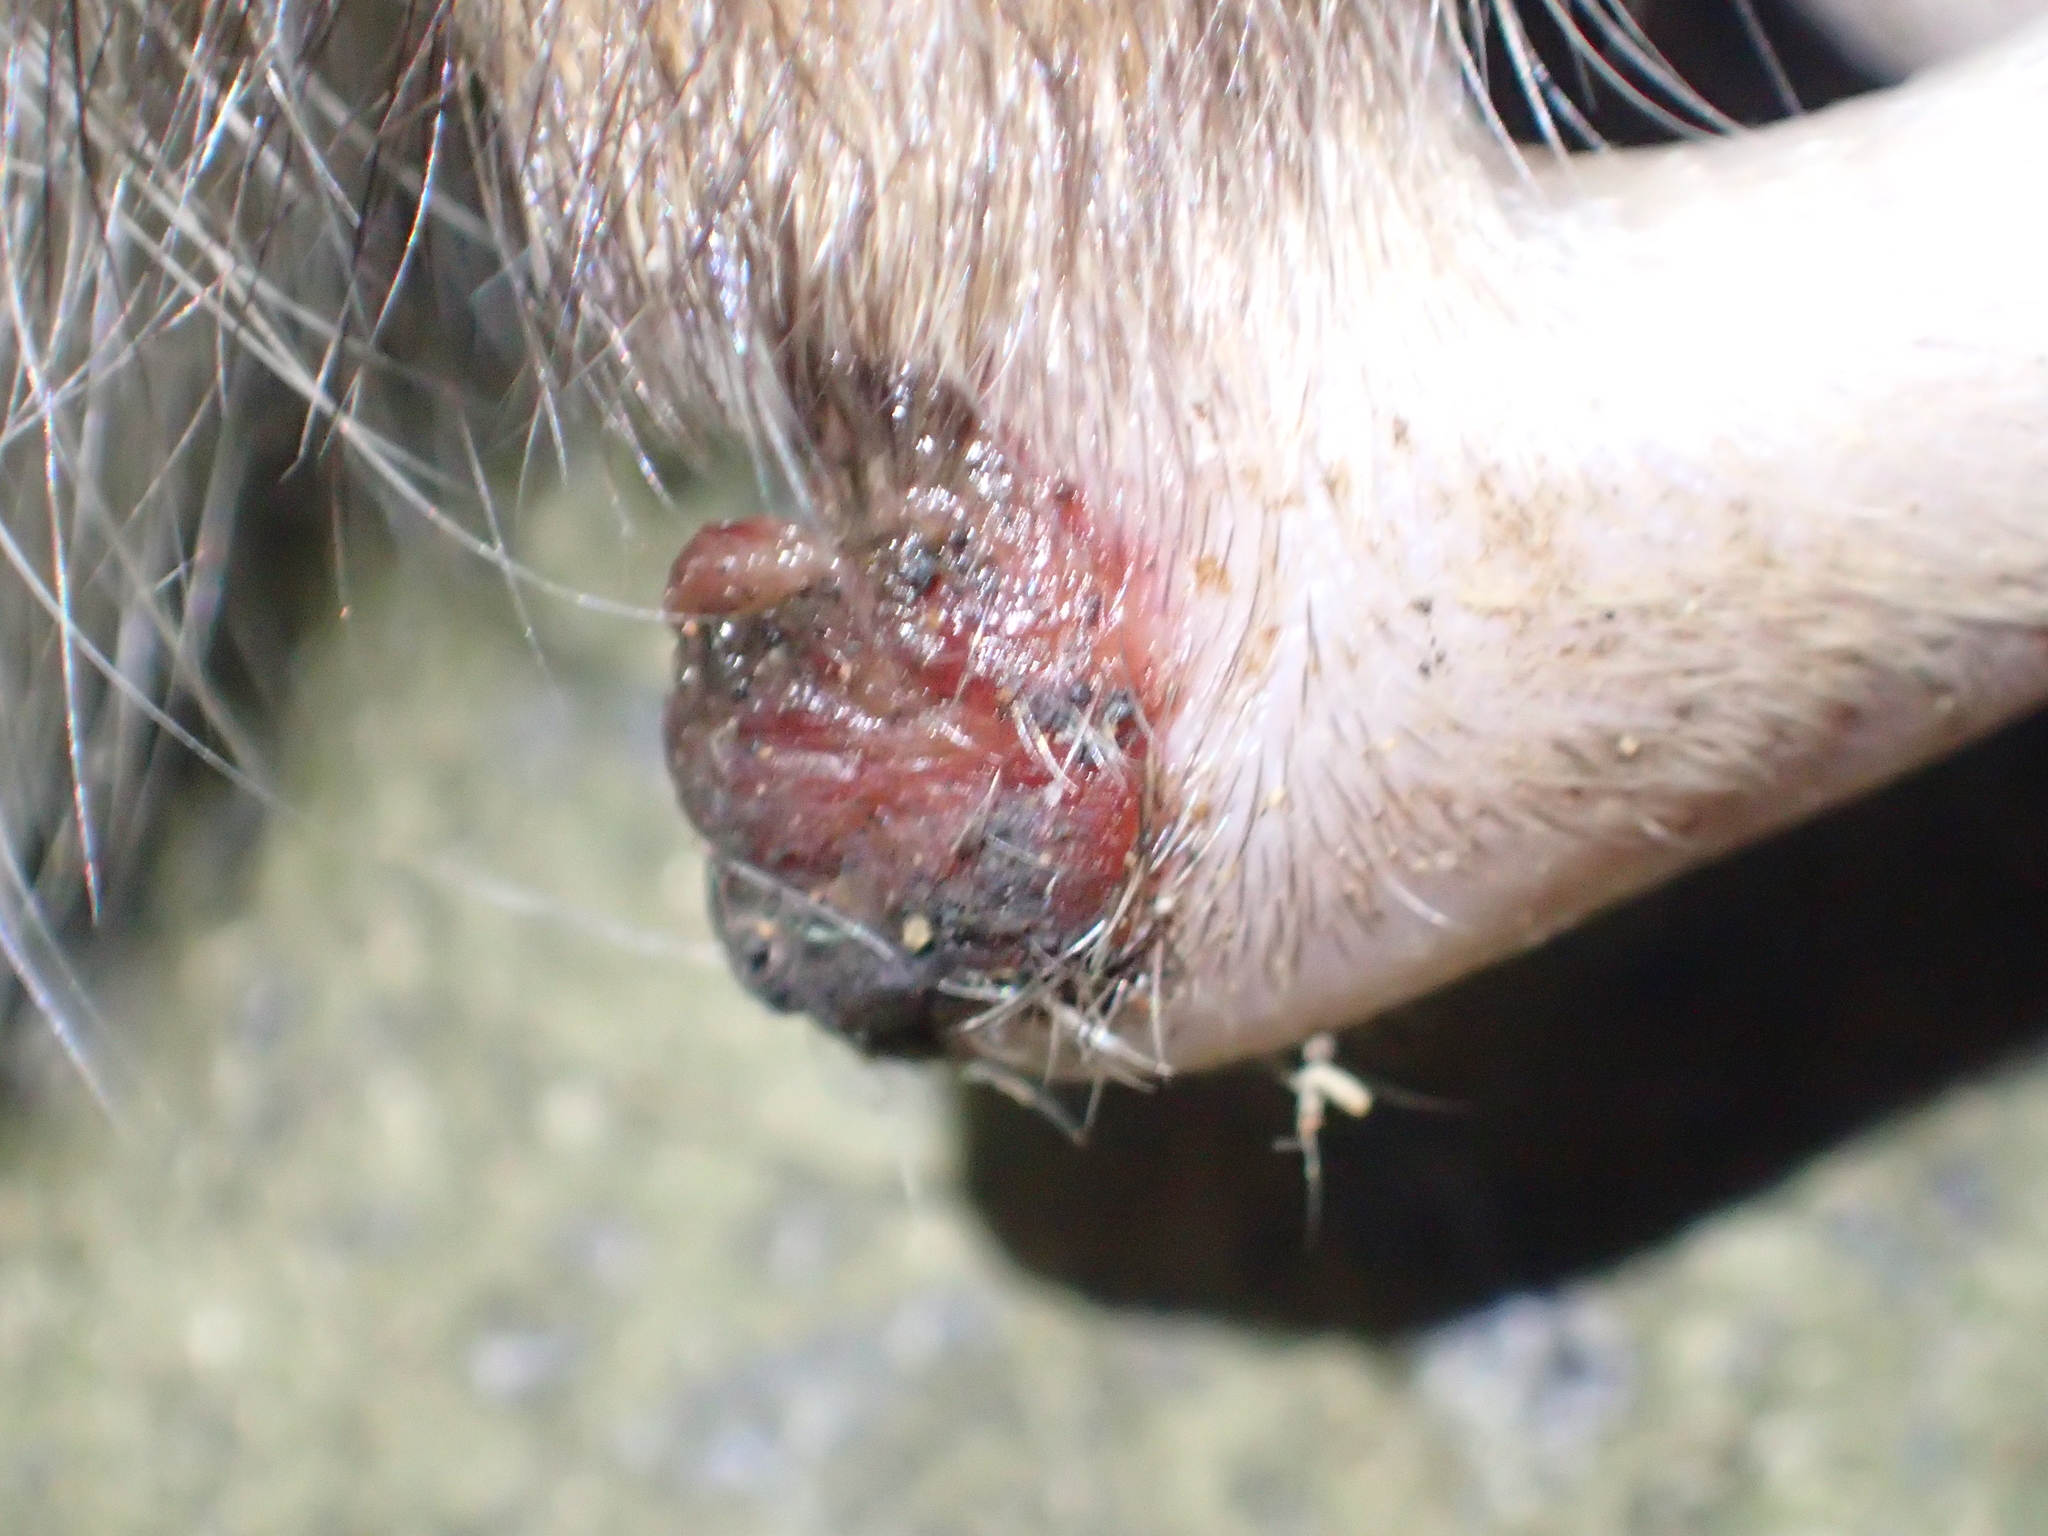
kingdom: Animalia
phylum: Chordata
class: Mammalia
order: Rodentia
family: Muridae
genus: Rattus
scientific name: Rattus norvegicus
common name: Brown rat
